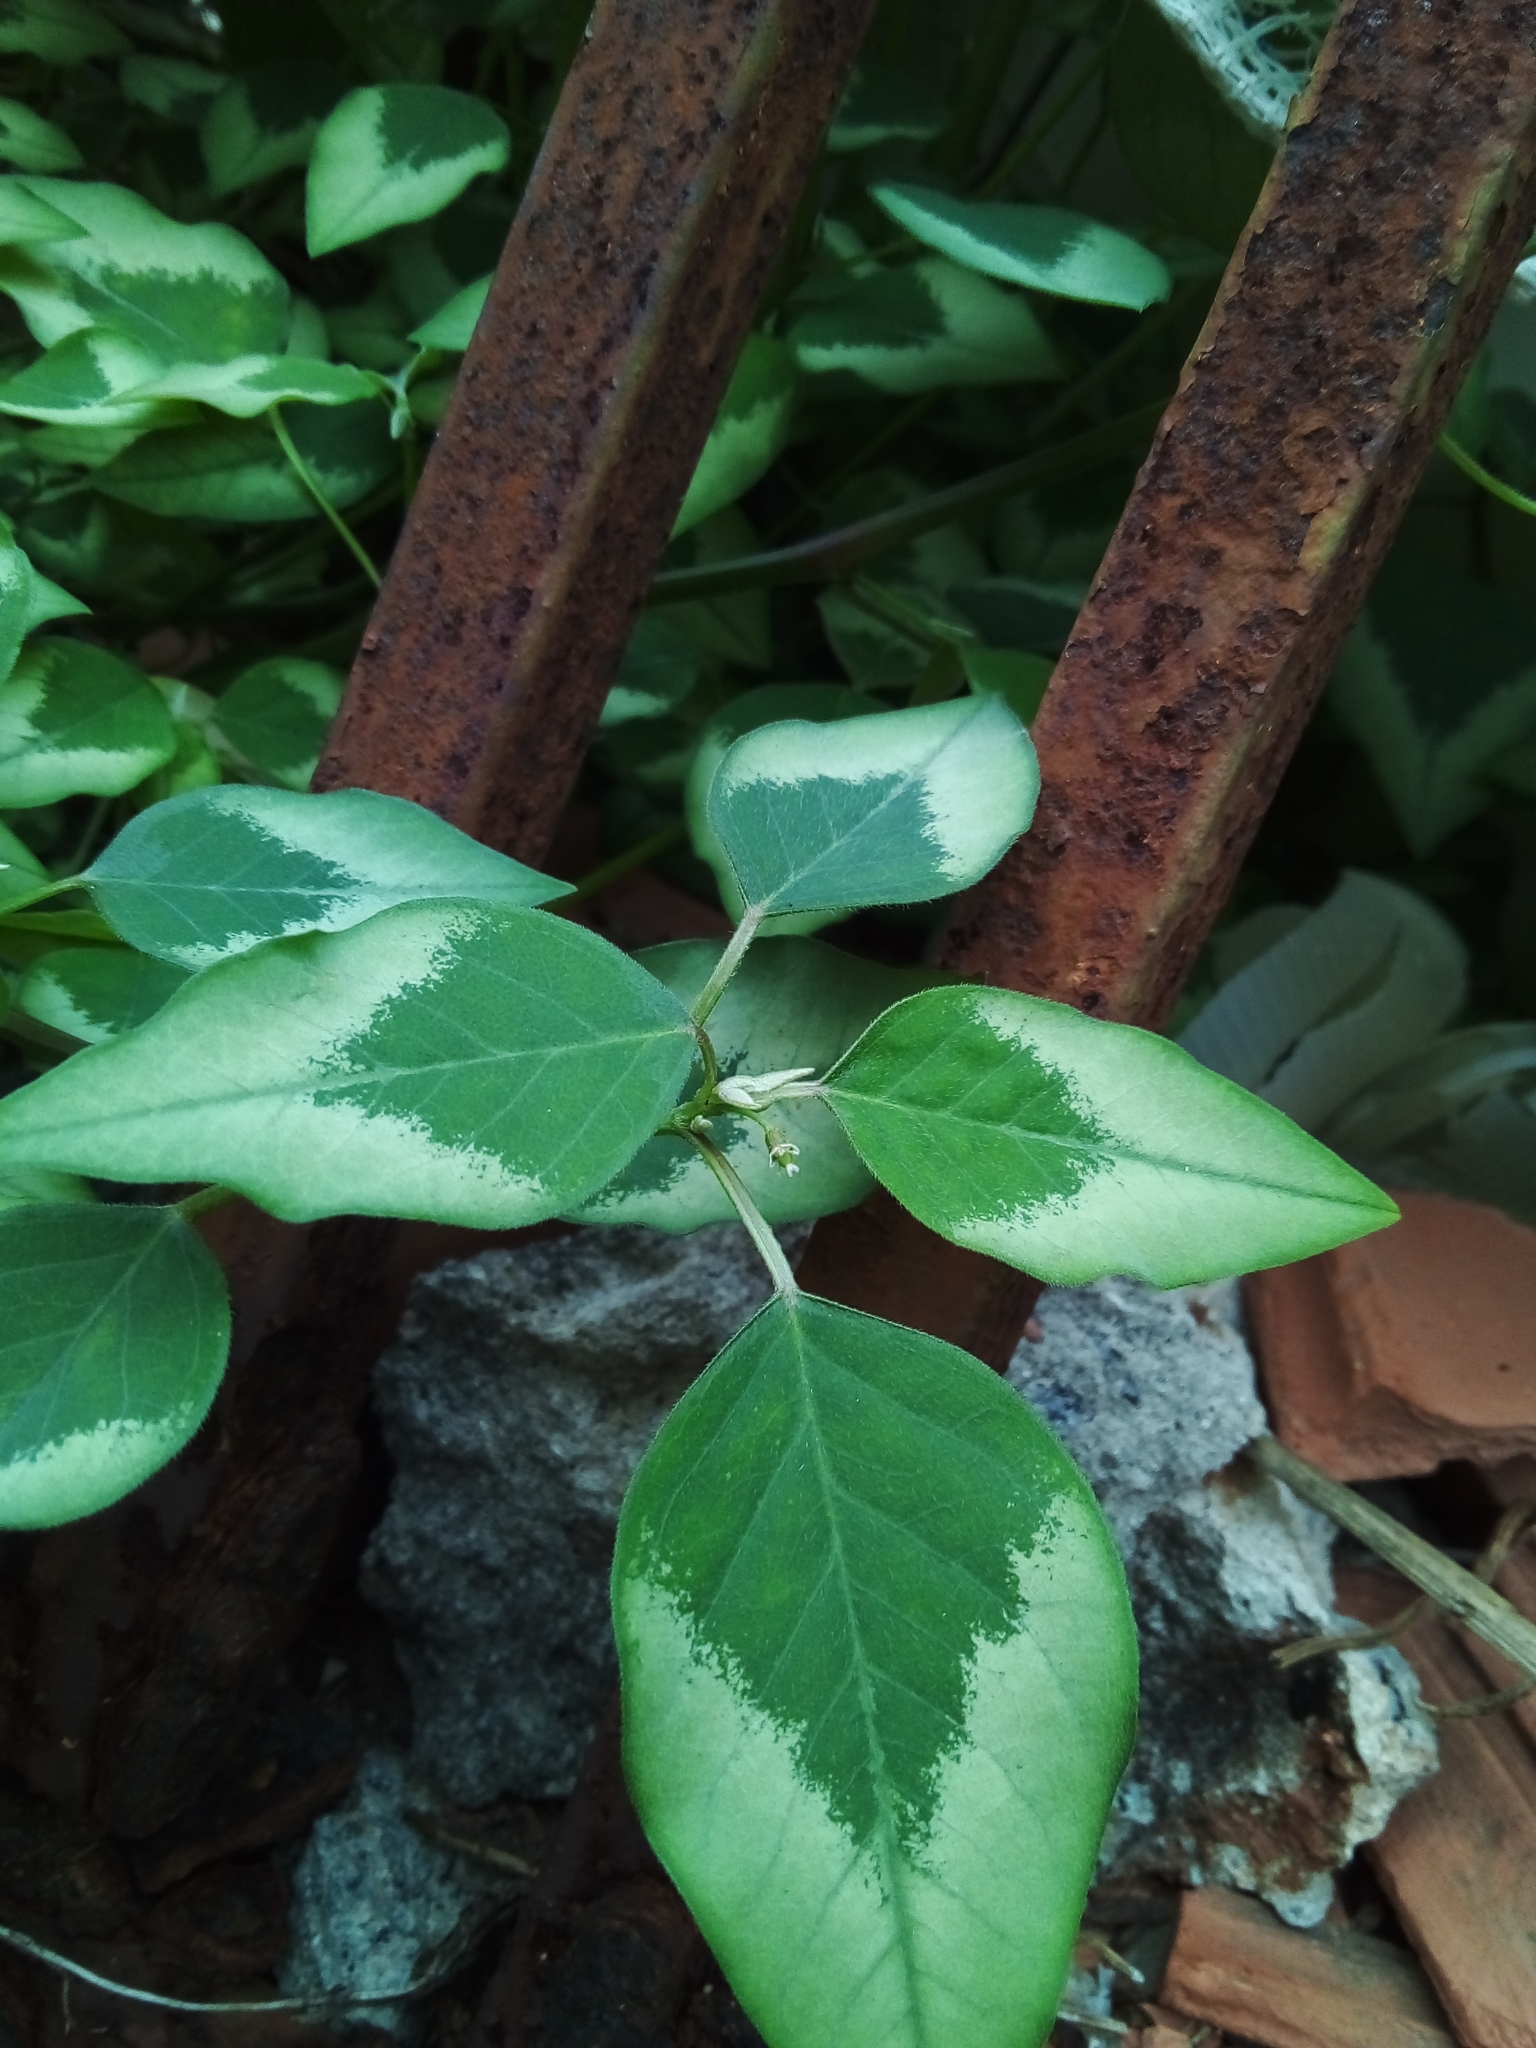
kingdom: Plantae
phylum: Tracheophyta
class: Magnoliopsida
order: Malpighiales
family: Euphorbiaceae
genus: Euphorbia
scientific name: Euphorbia graminea
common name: Grassleaf spurge
